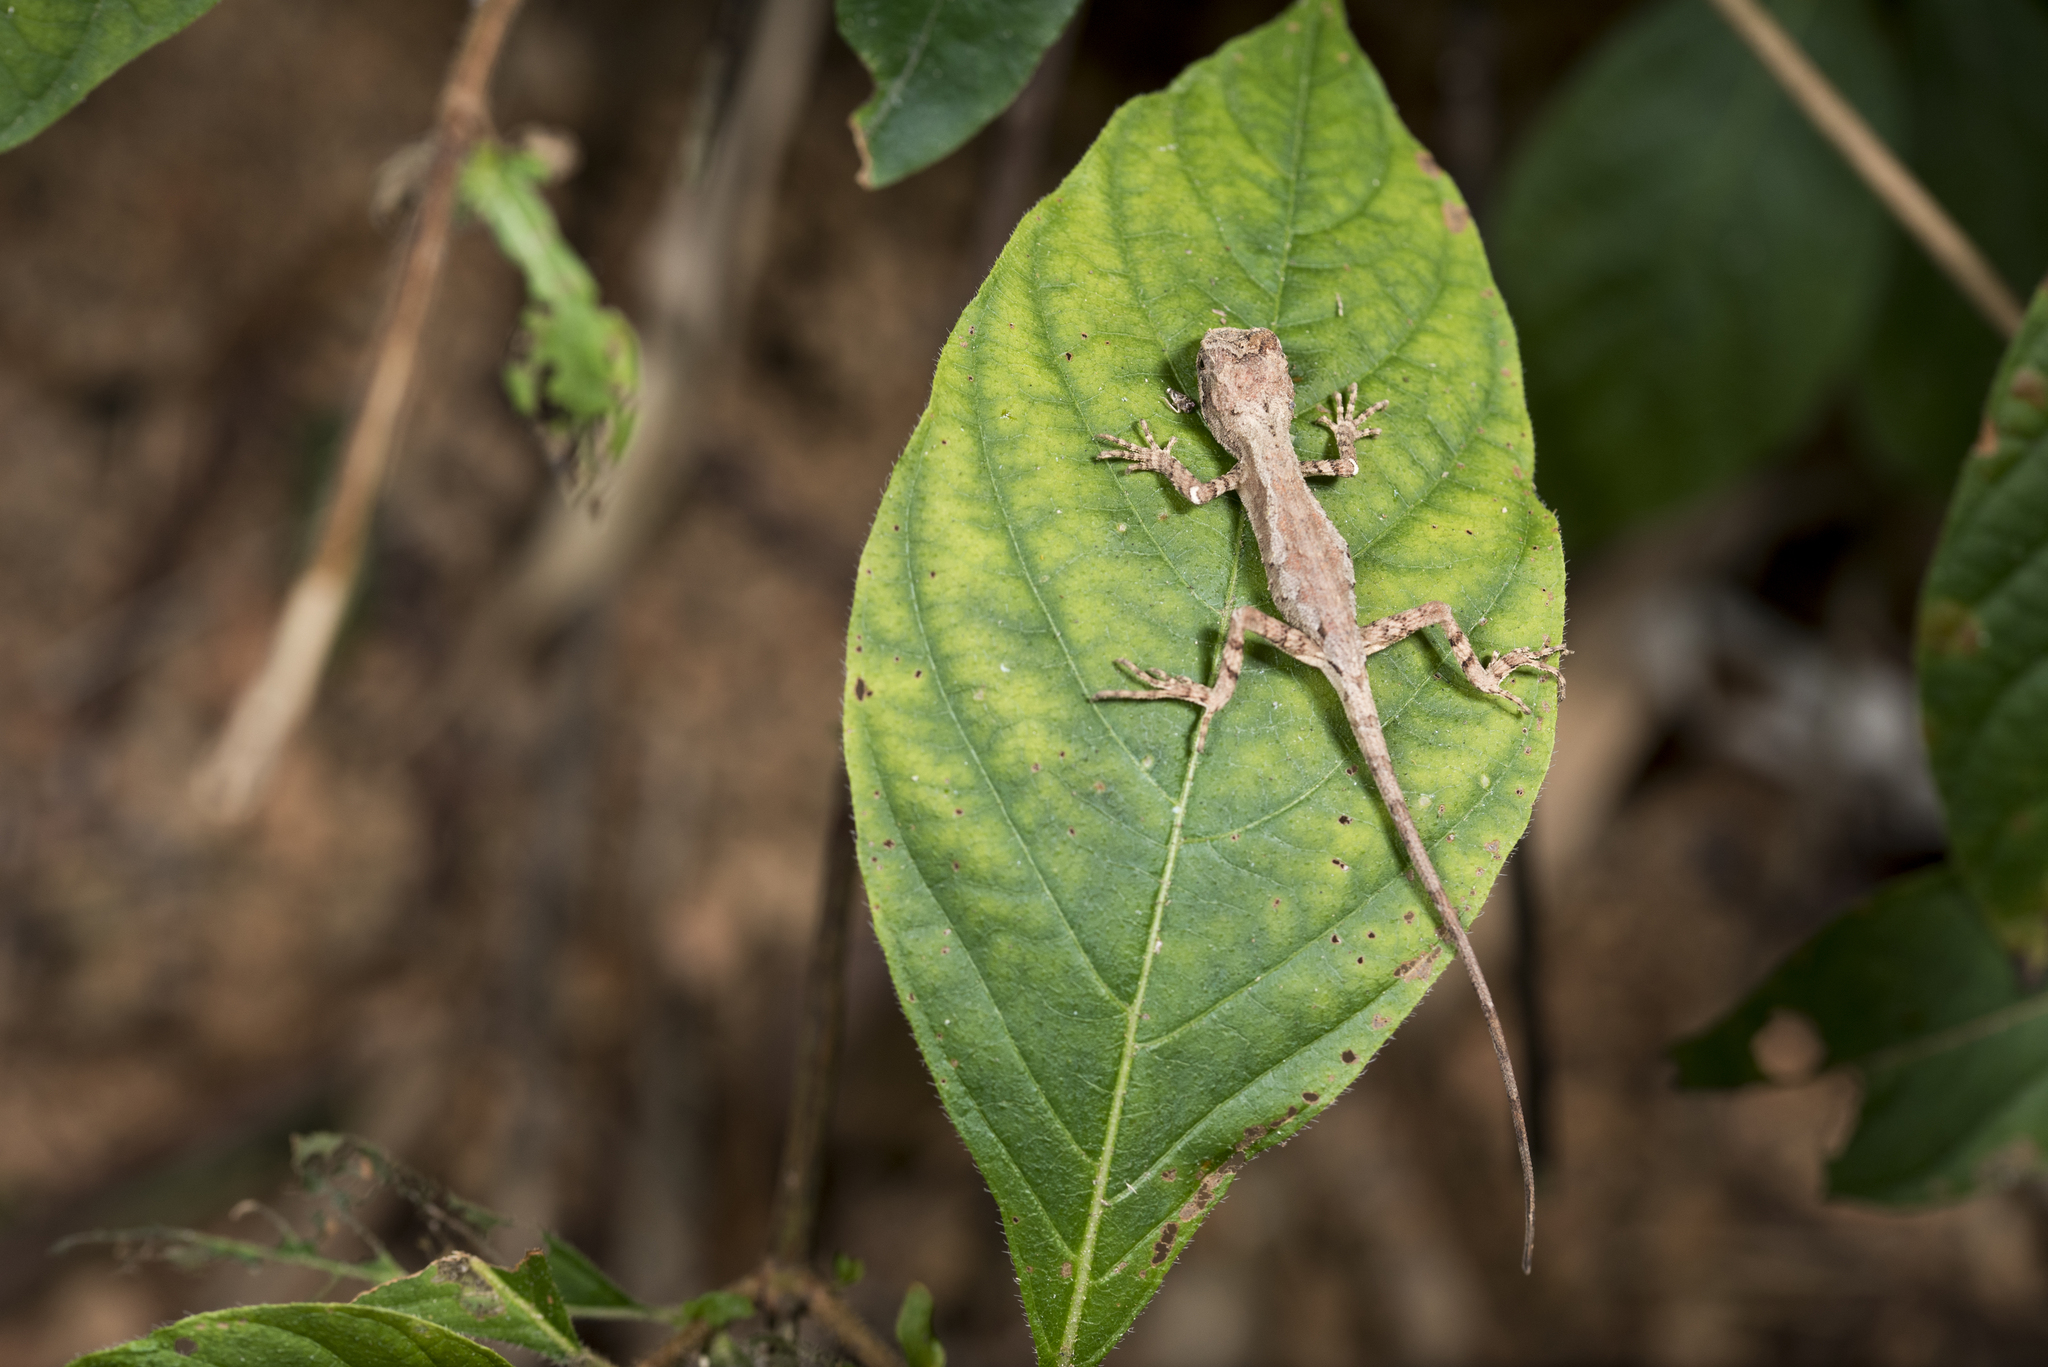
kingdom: Animalia
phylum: Chordata
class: Squamata
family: Agamidae
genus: Diploderma
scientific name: Diploderma swinhonis
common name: Taiwan japalure
